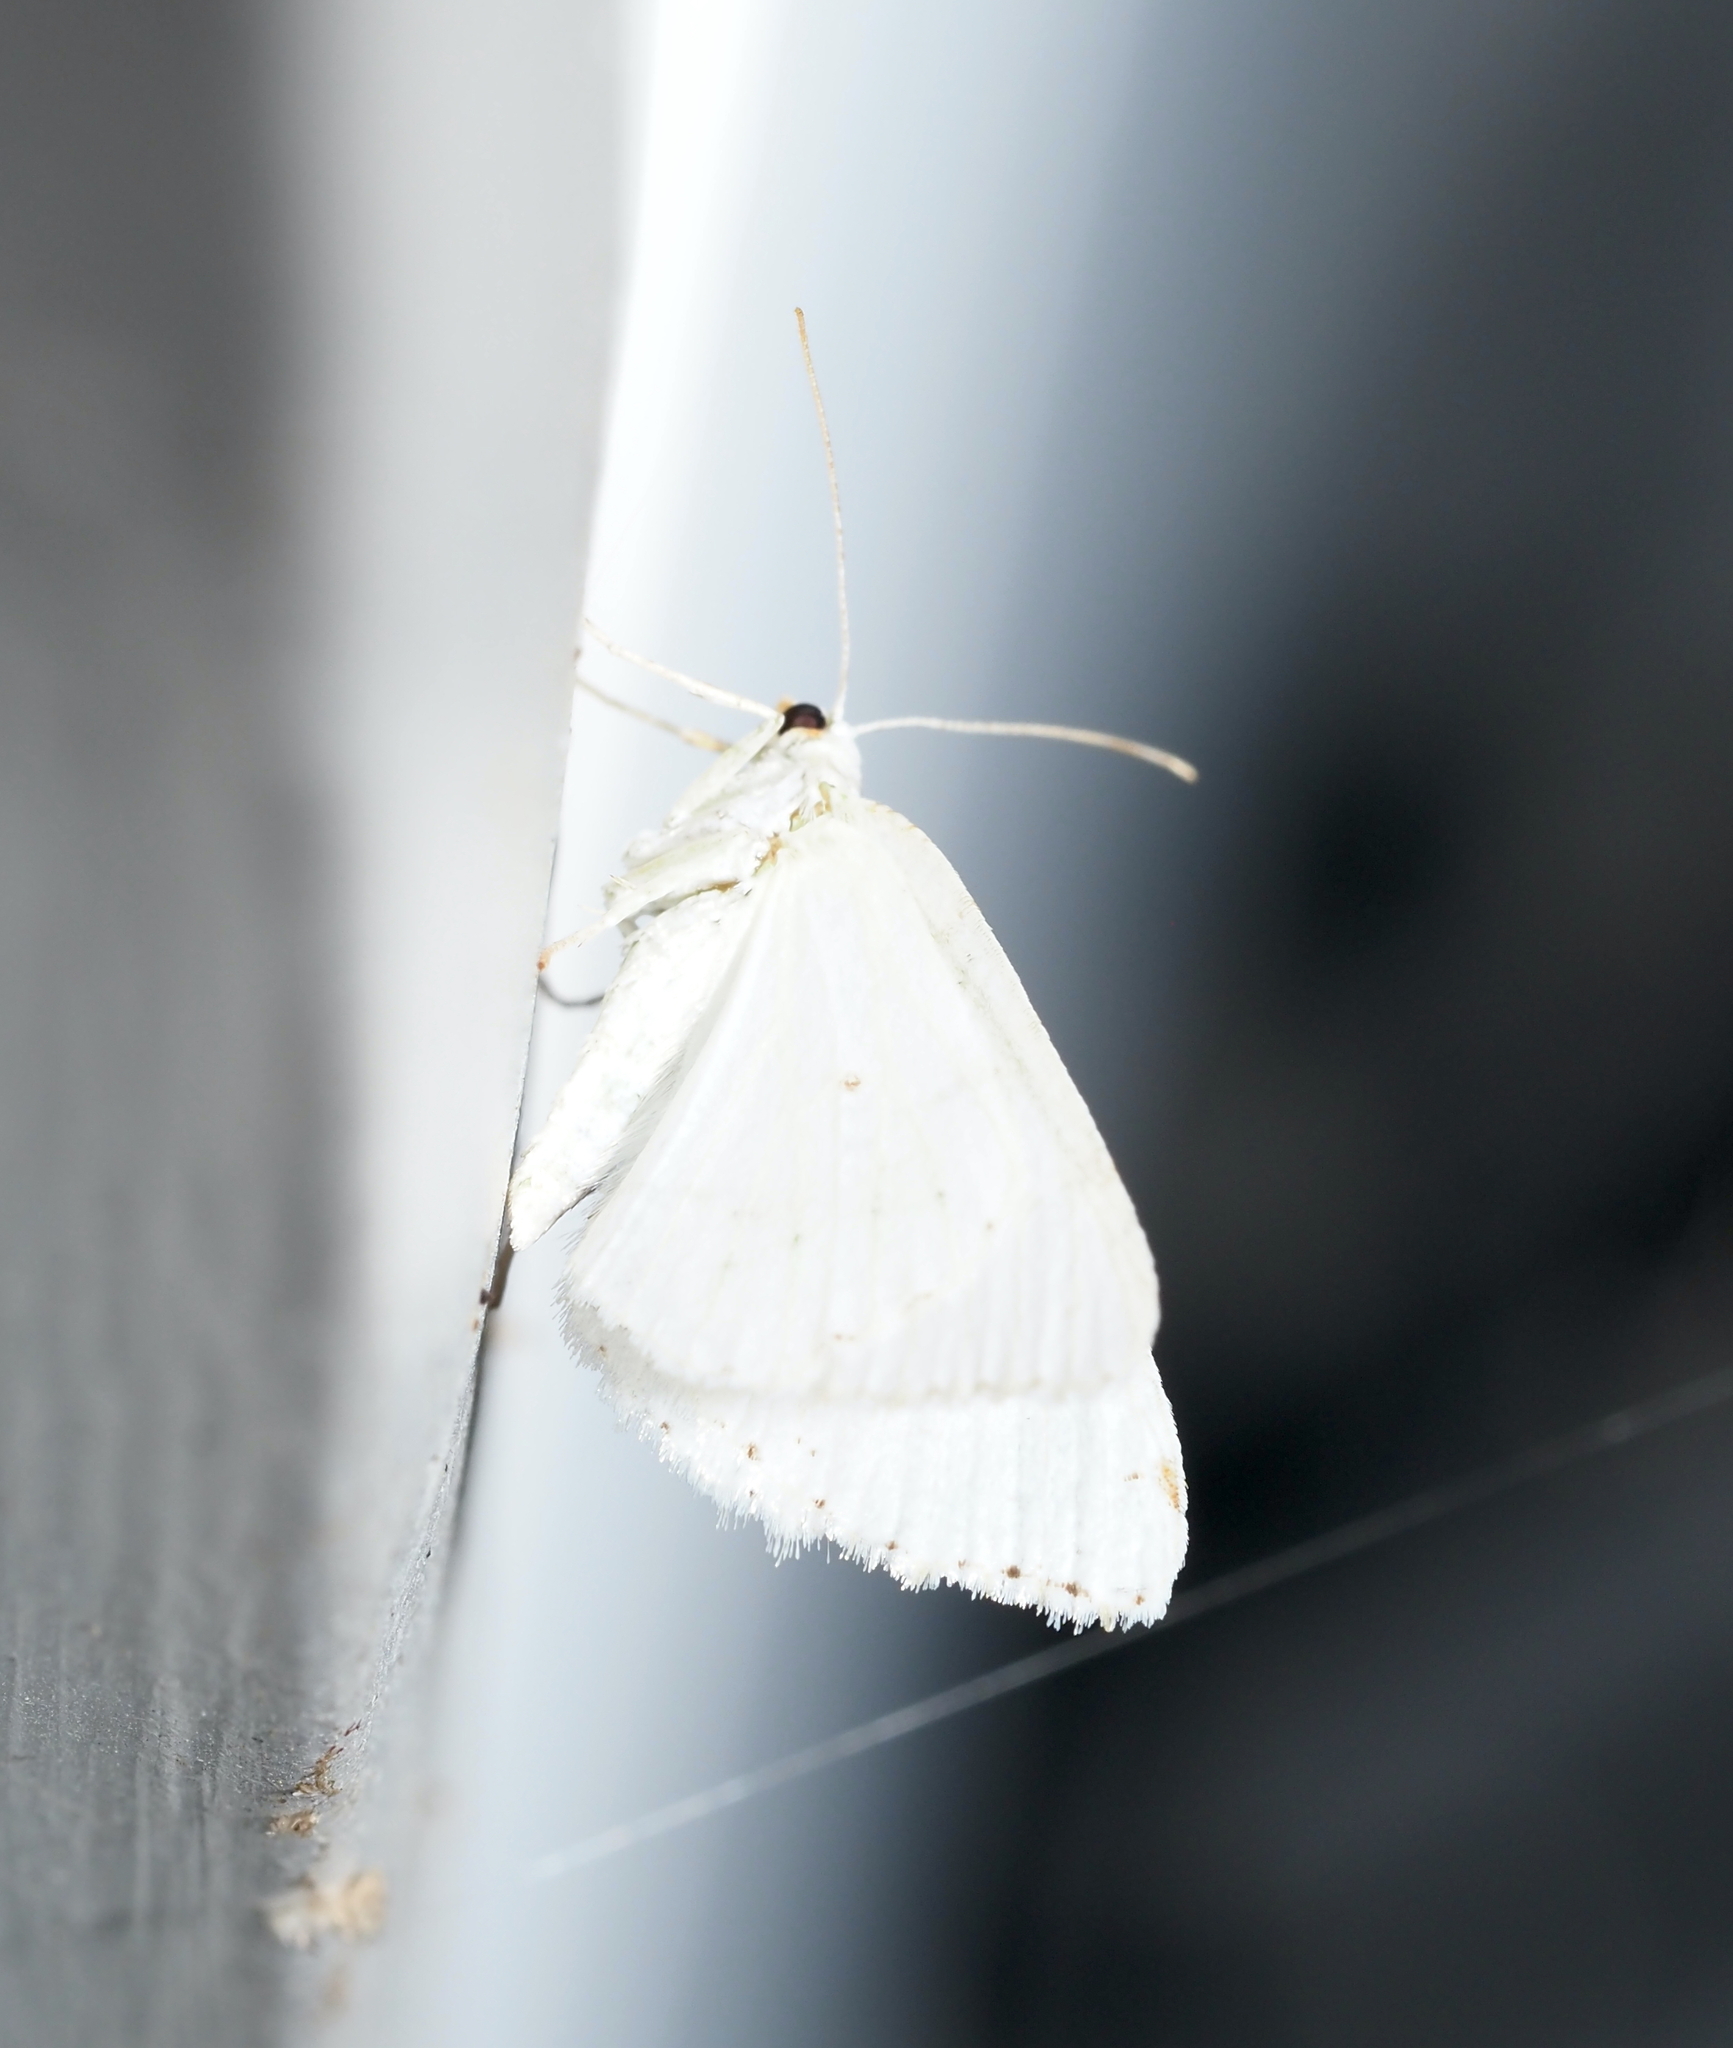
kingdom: Animalia
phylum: Arthropoda
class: Insecta
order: Lepidoptera
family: Geometridae
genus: Macaria
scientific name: Macaria pustularia
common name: Lesser maple spanworm moth
